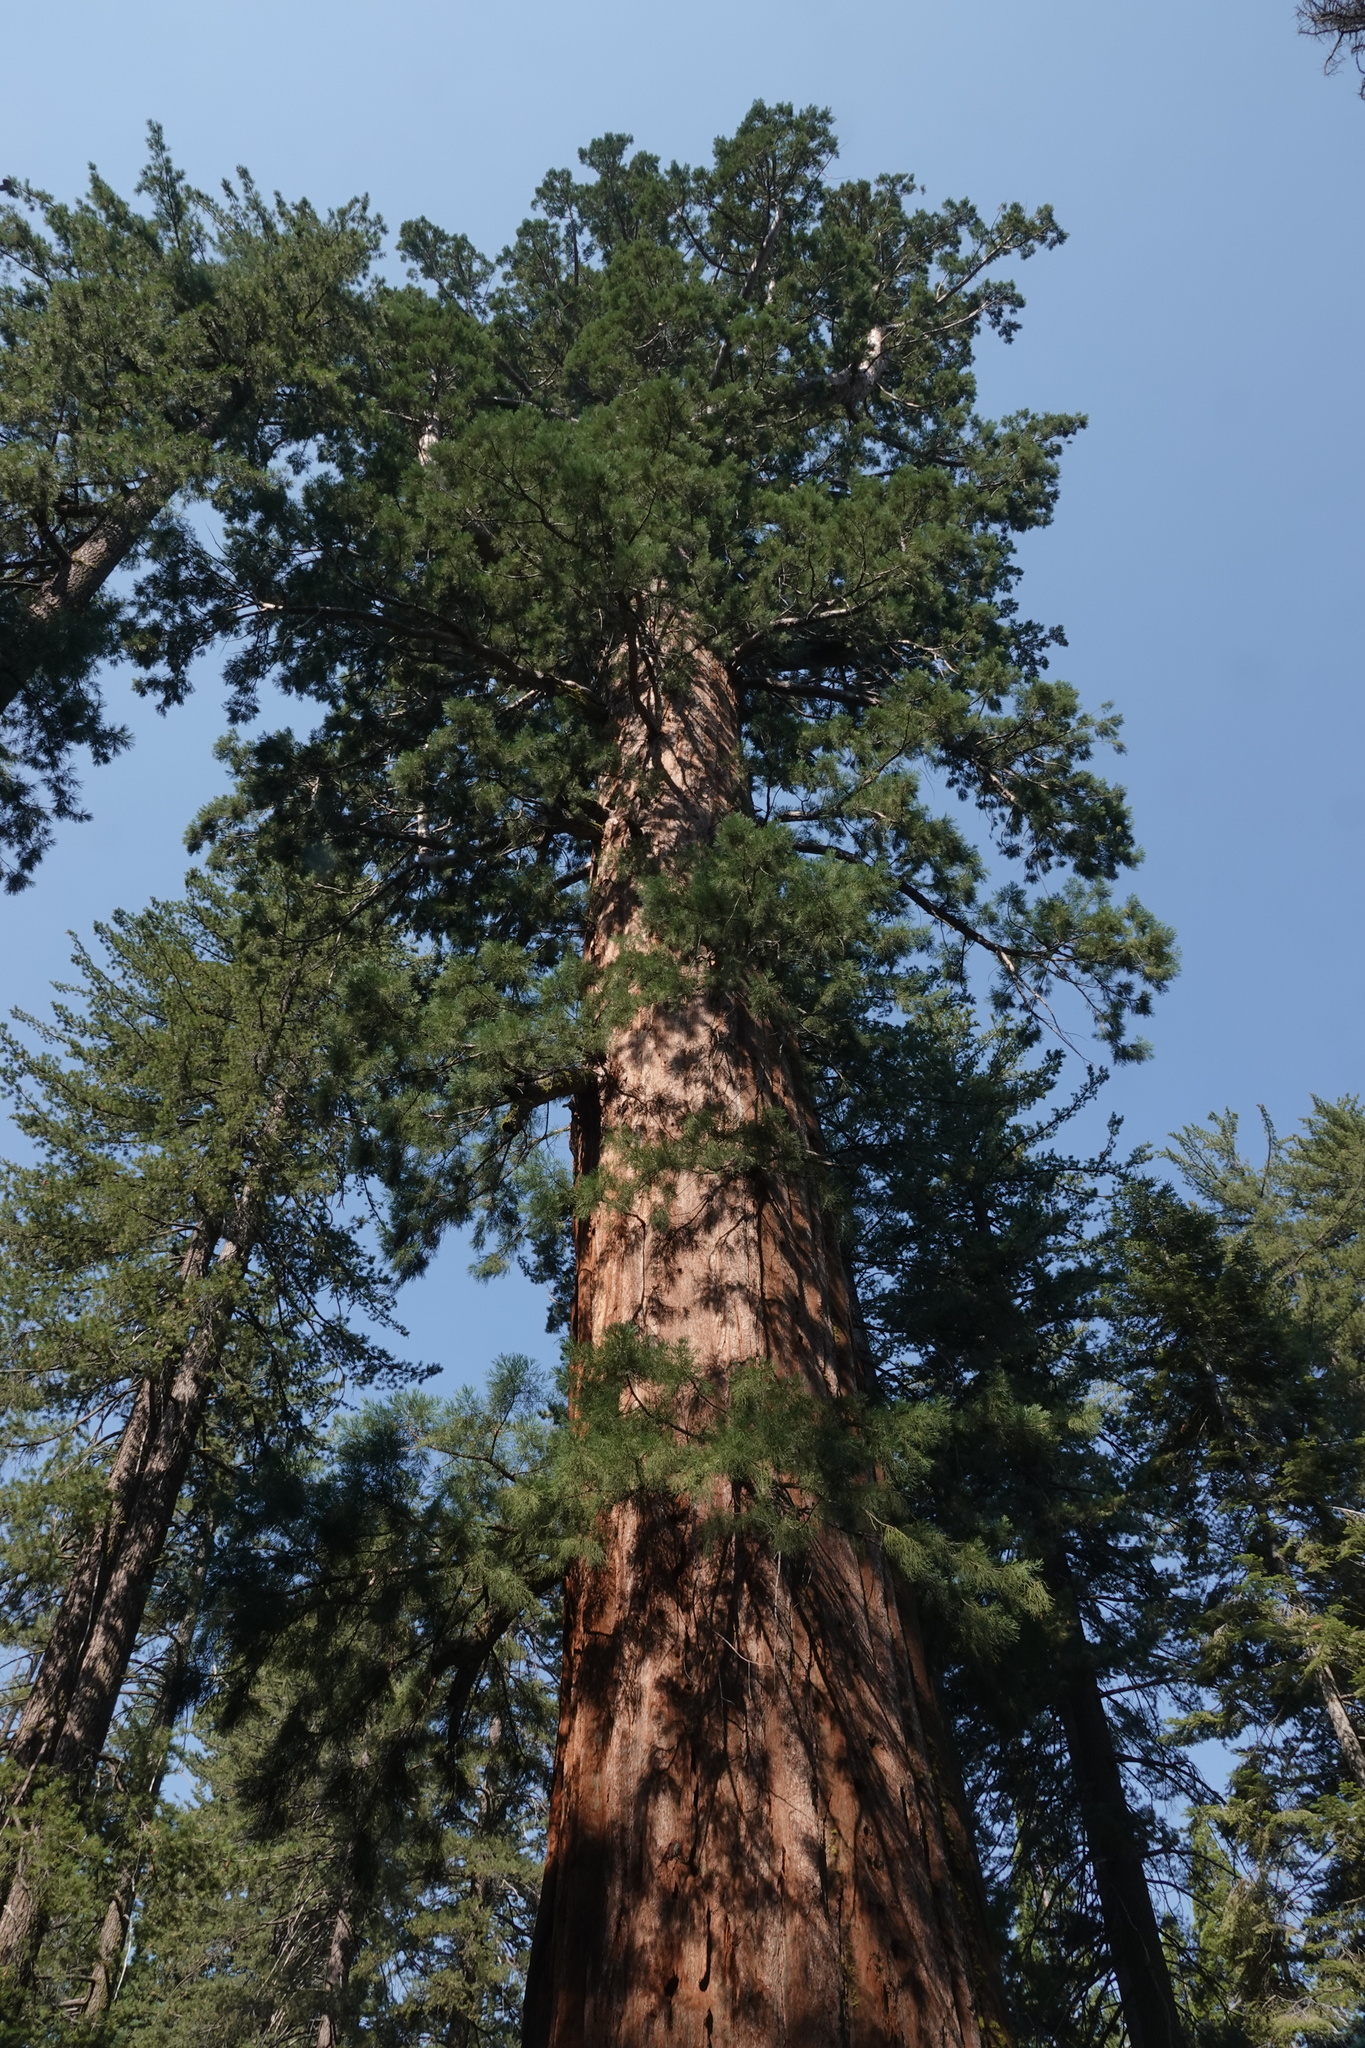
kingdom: Plantae
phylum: Tracheophyta
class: Pinopsida
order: Pinales
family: Cupressaceae
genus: Sequoiadendron
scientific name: Sequoiadendron giganteum
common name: Wellingtonia
